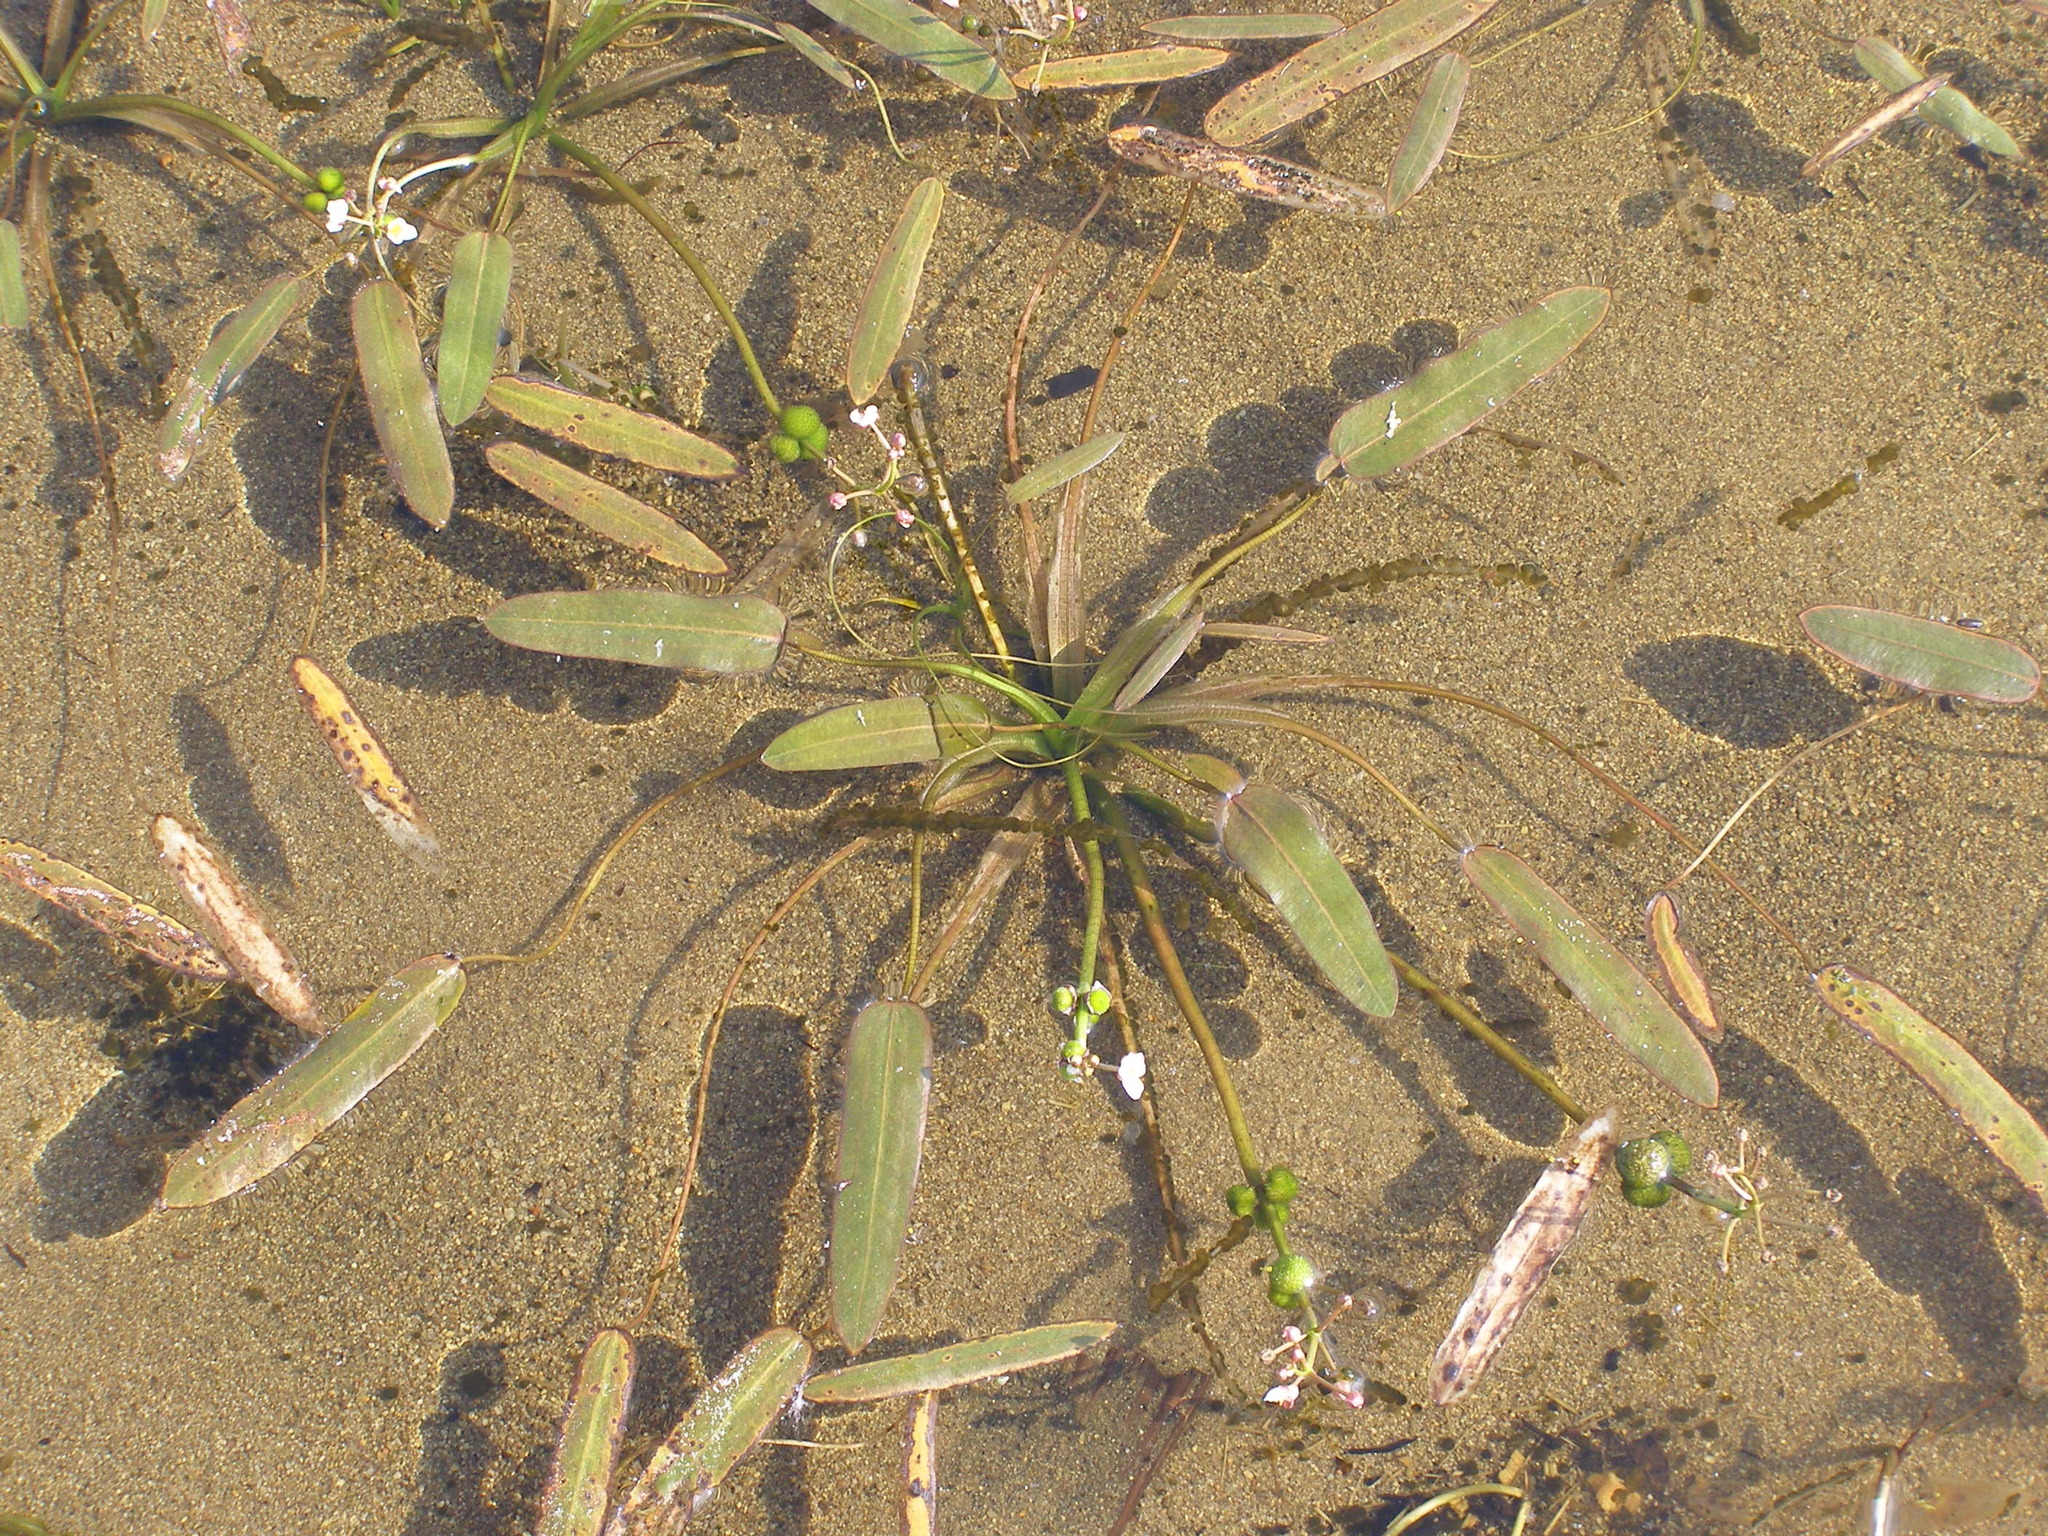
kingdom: Plantae
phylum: Tracheophyta
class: Liliopsida
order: Alismatales
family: Alismataceae
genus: Sagittaria
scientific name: Sagittaria natans
